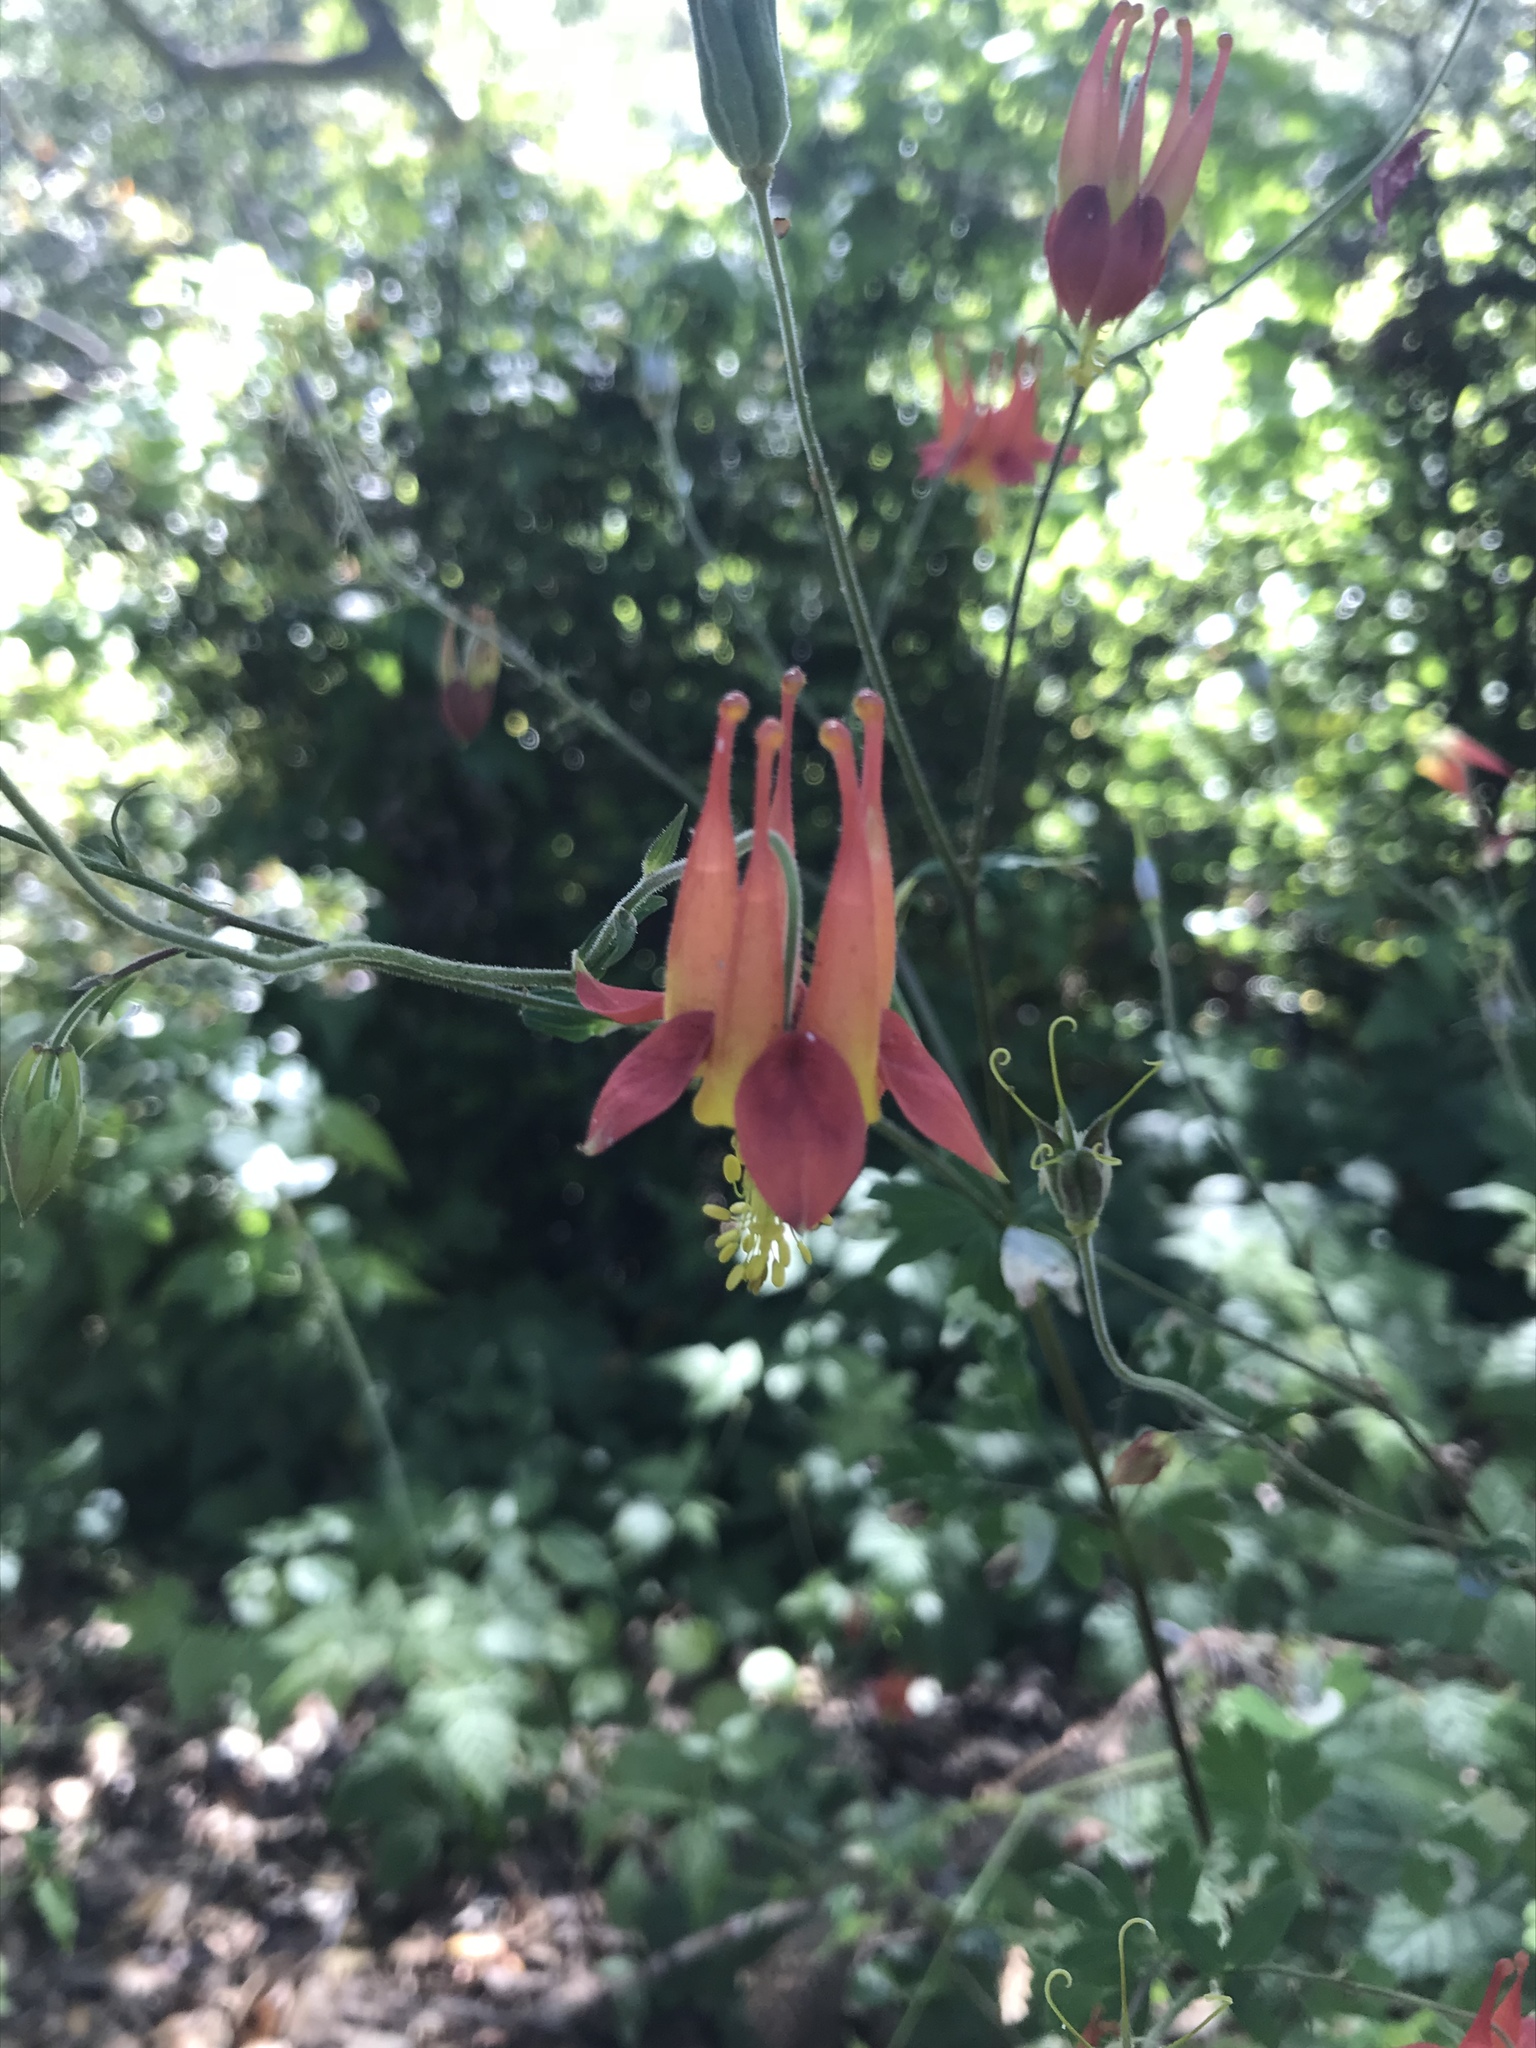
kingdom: Plantae
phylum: Tracheophyta
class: Magnoliopsida
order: Ranunculales
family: Ranunculaceae
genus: Aquilegia
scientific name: Aquilegia formosa
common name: Sitka columbine
